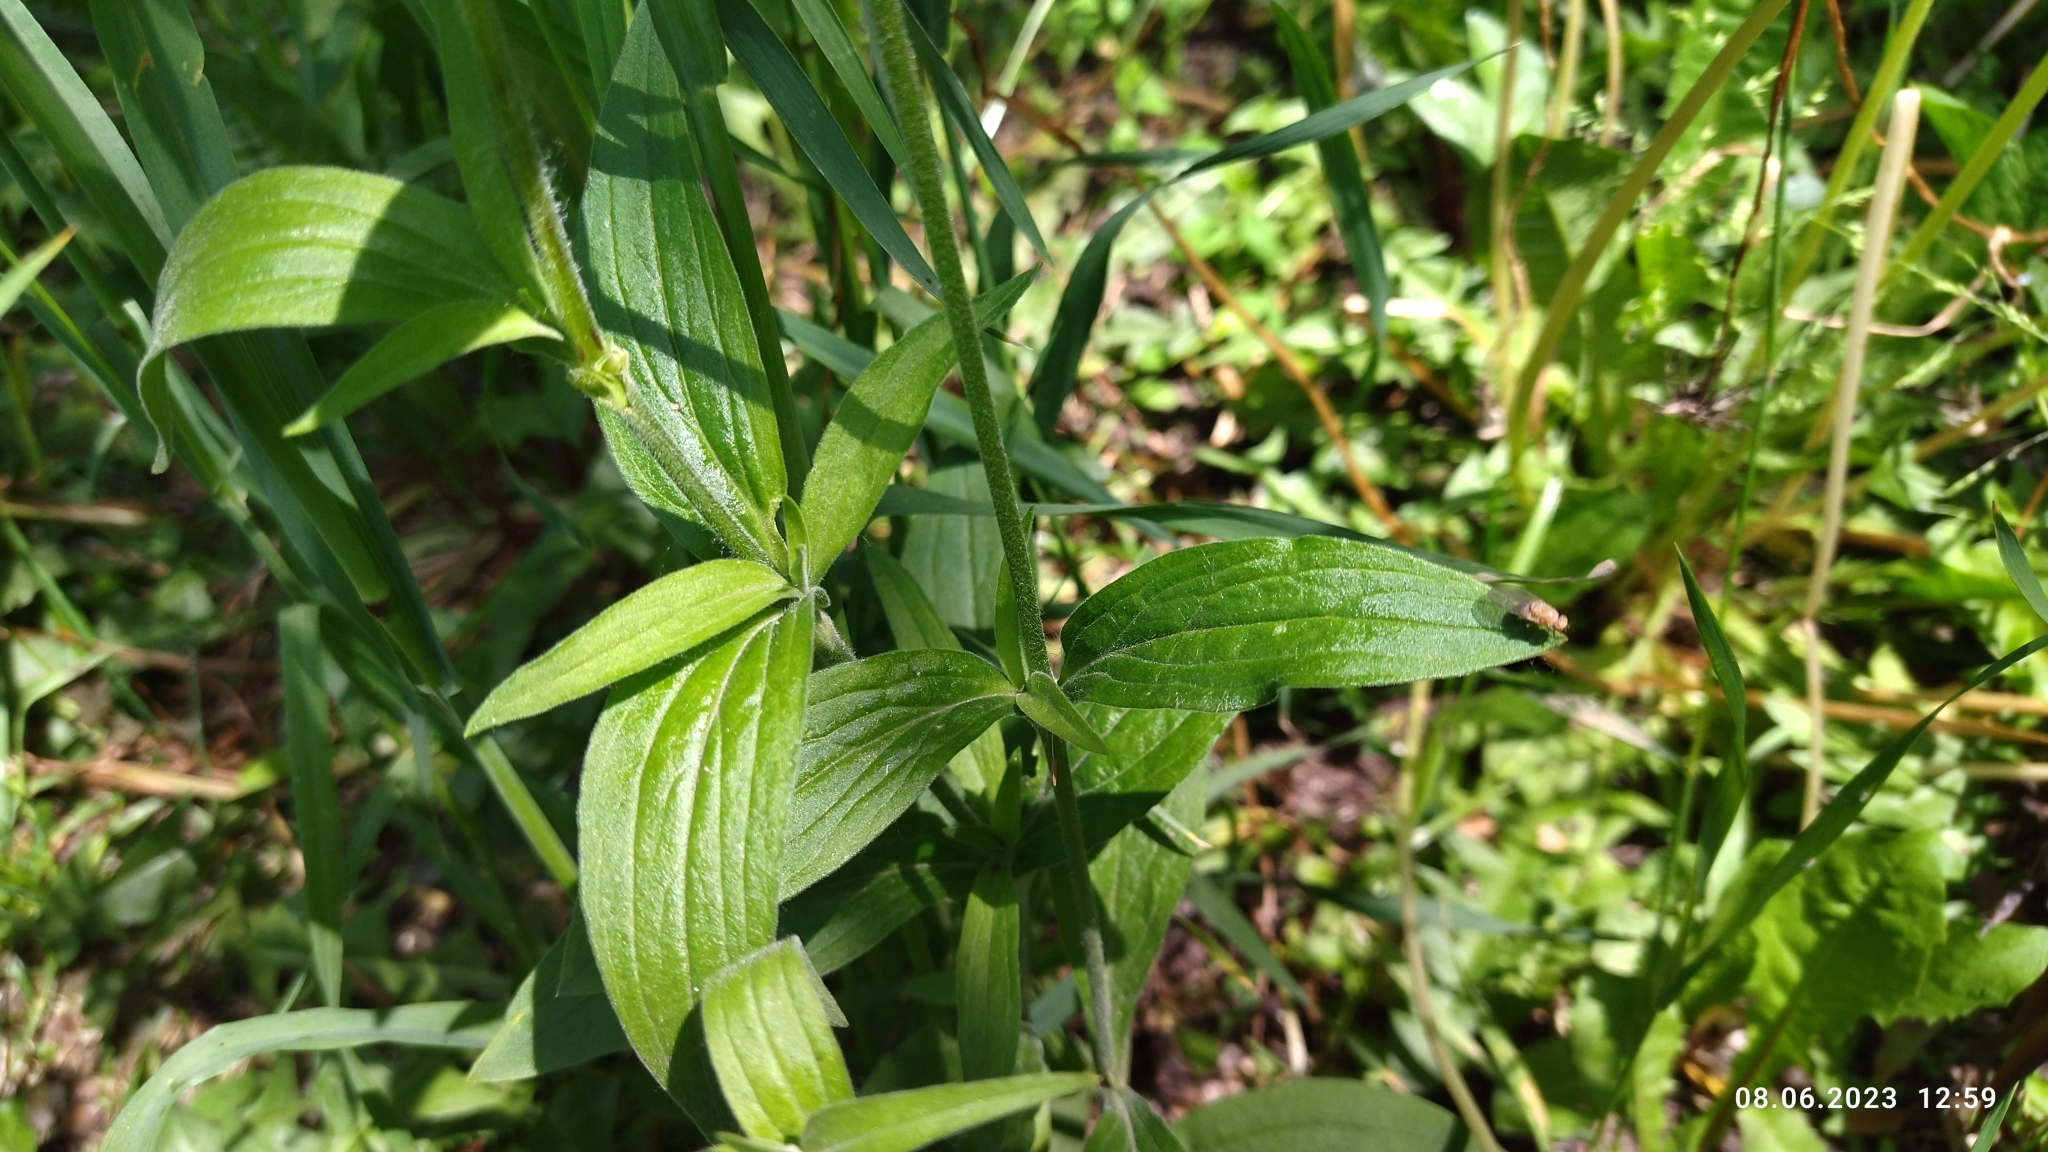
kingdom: Plantae
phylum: Tracheophyta
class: Magnoliopsida
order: Caryophyllales
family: Caryophyllaceae
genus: Silene
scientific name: Silene latifolia
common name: White campion
